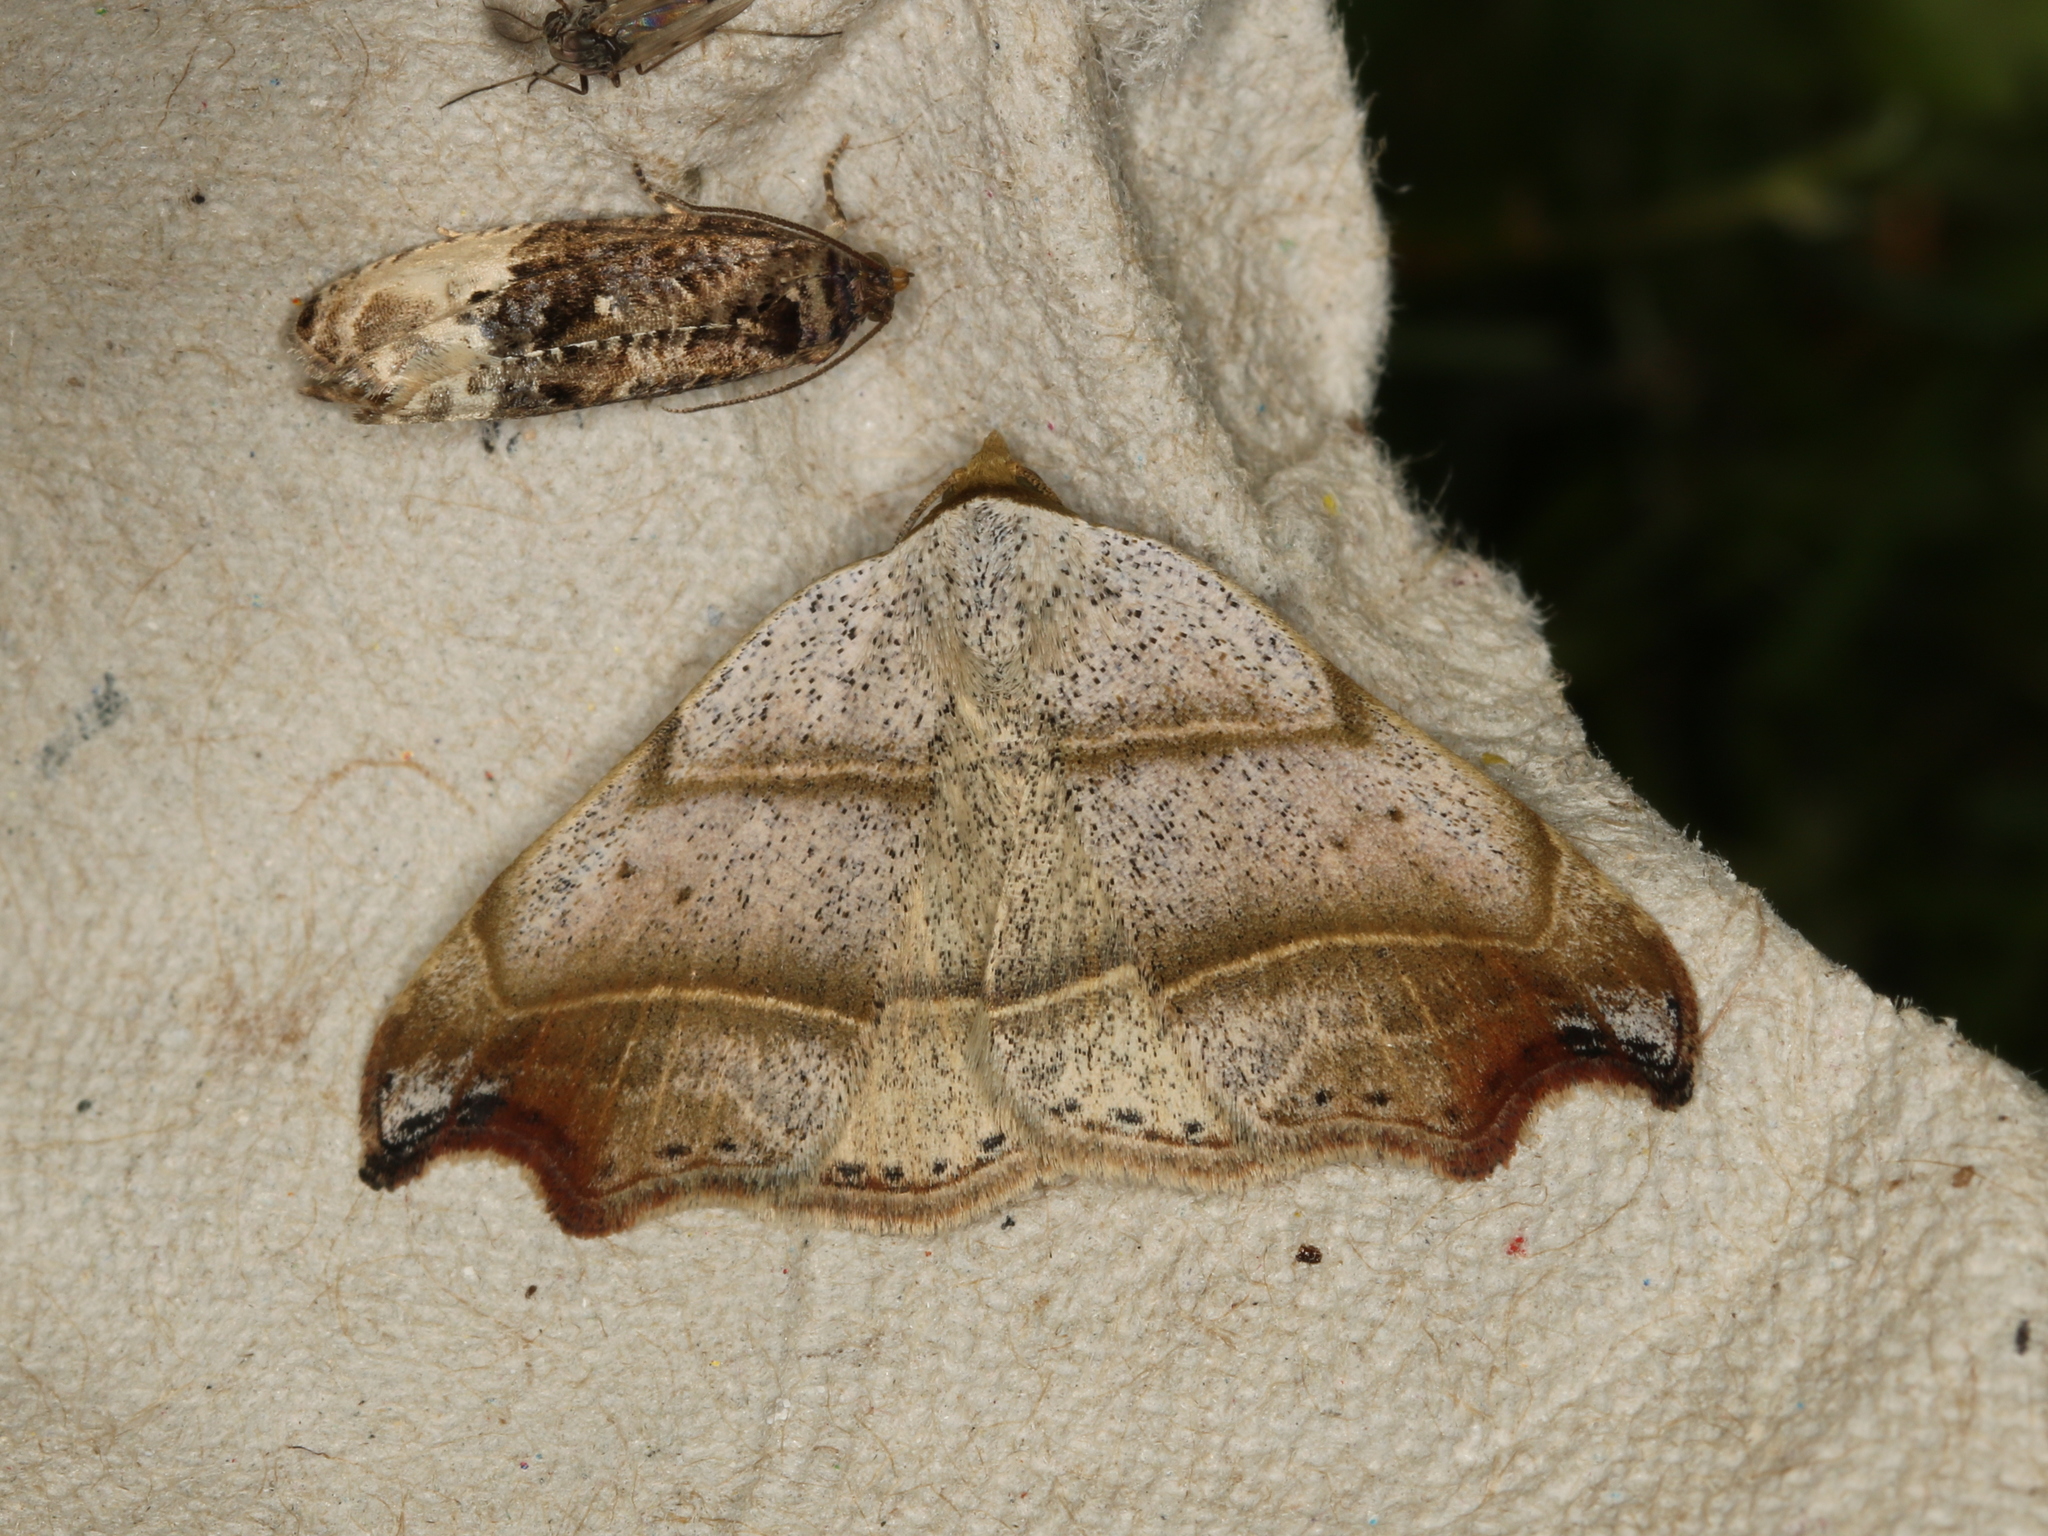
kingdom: Animalia
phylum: Arthropoda
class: Insecta
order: Lepidoptera
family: Erebidae
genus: Laspeyria
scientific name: Laspeyria flexula
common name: Beautiful hook-tip
